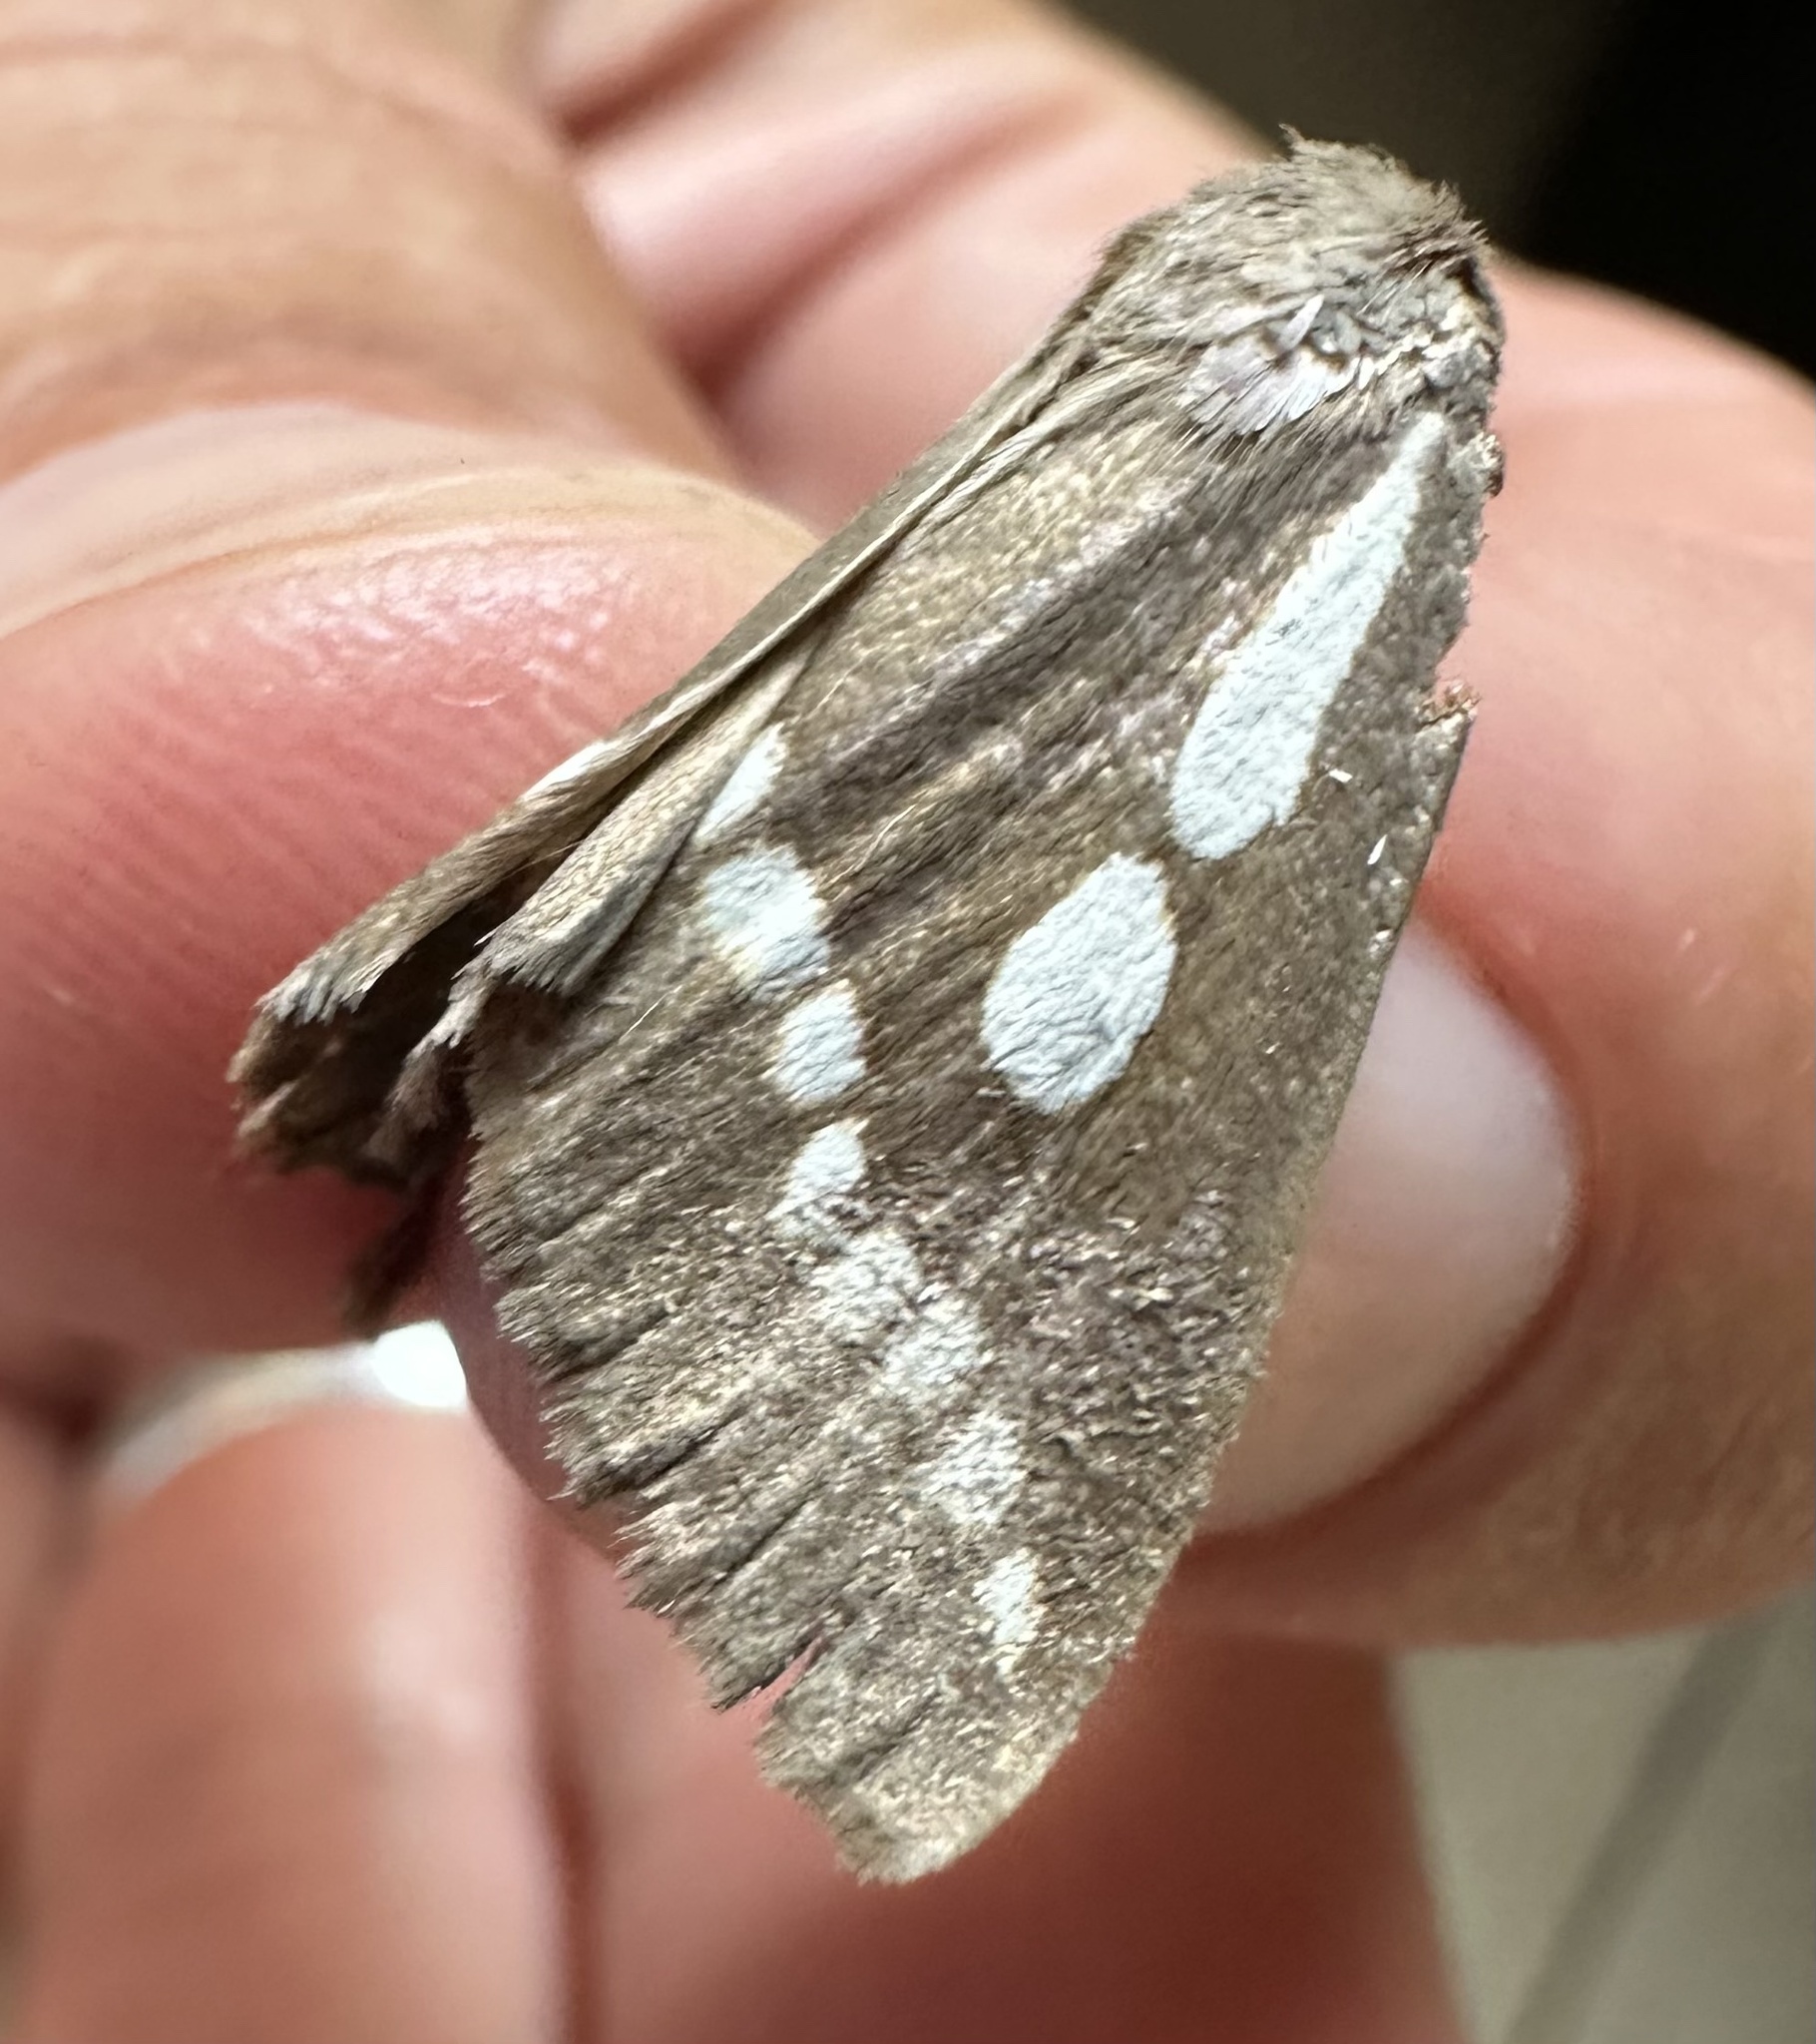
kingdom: Animalia
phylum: Arthropoda
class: Insecta
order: Lepidoptera
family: Erebidae
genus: Calesia
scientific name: Calesia zambesita
